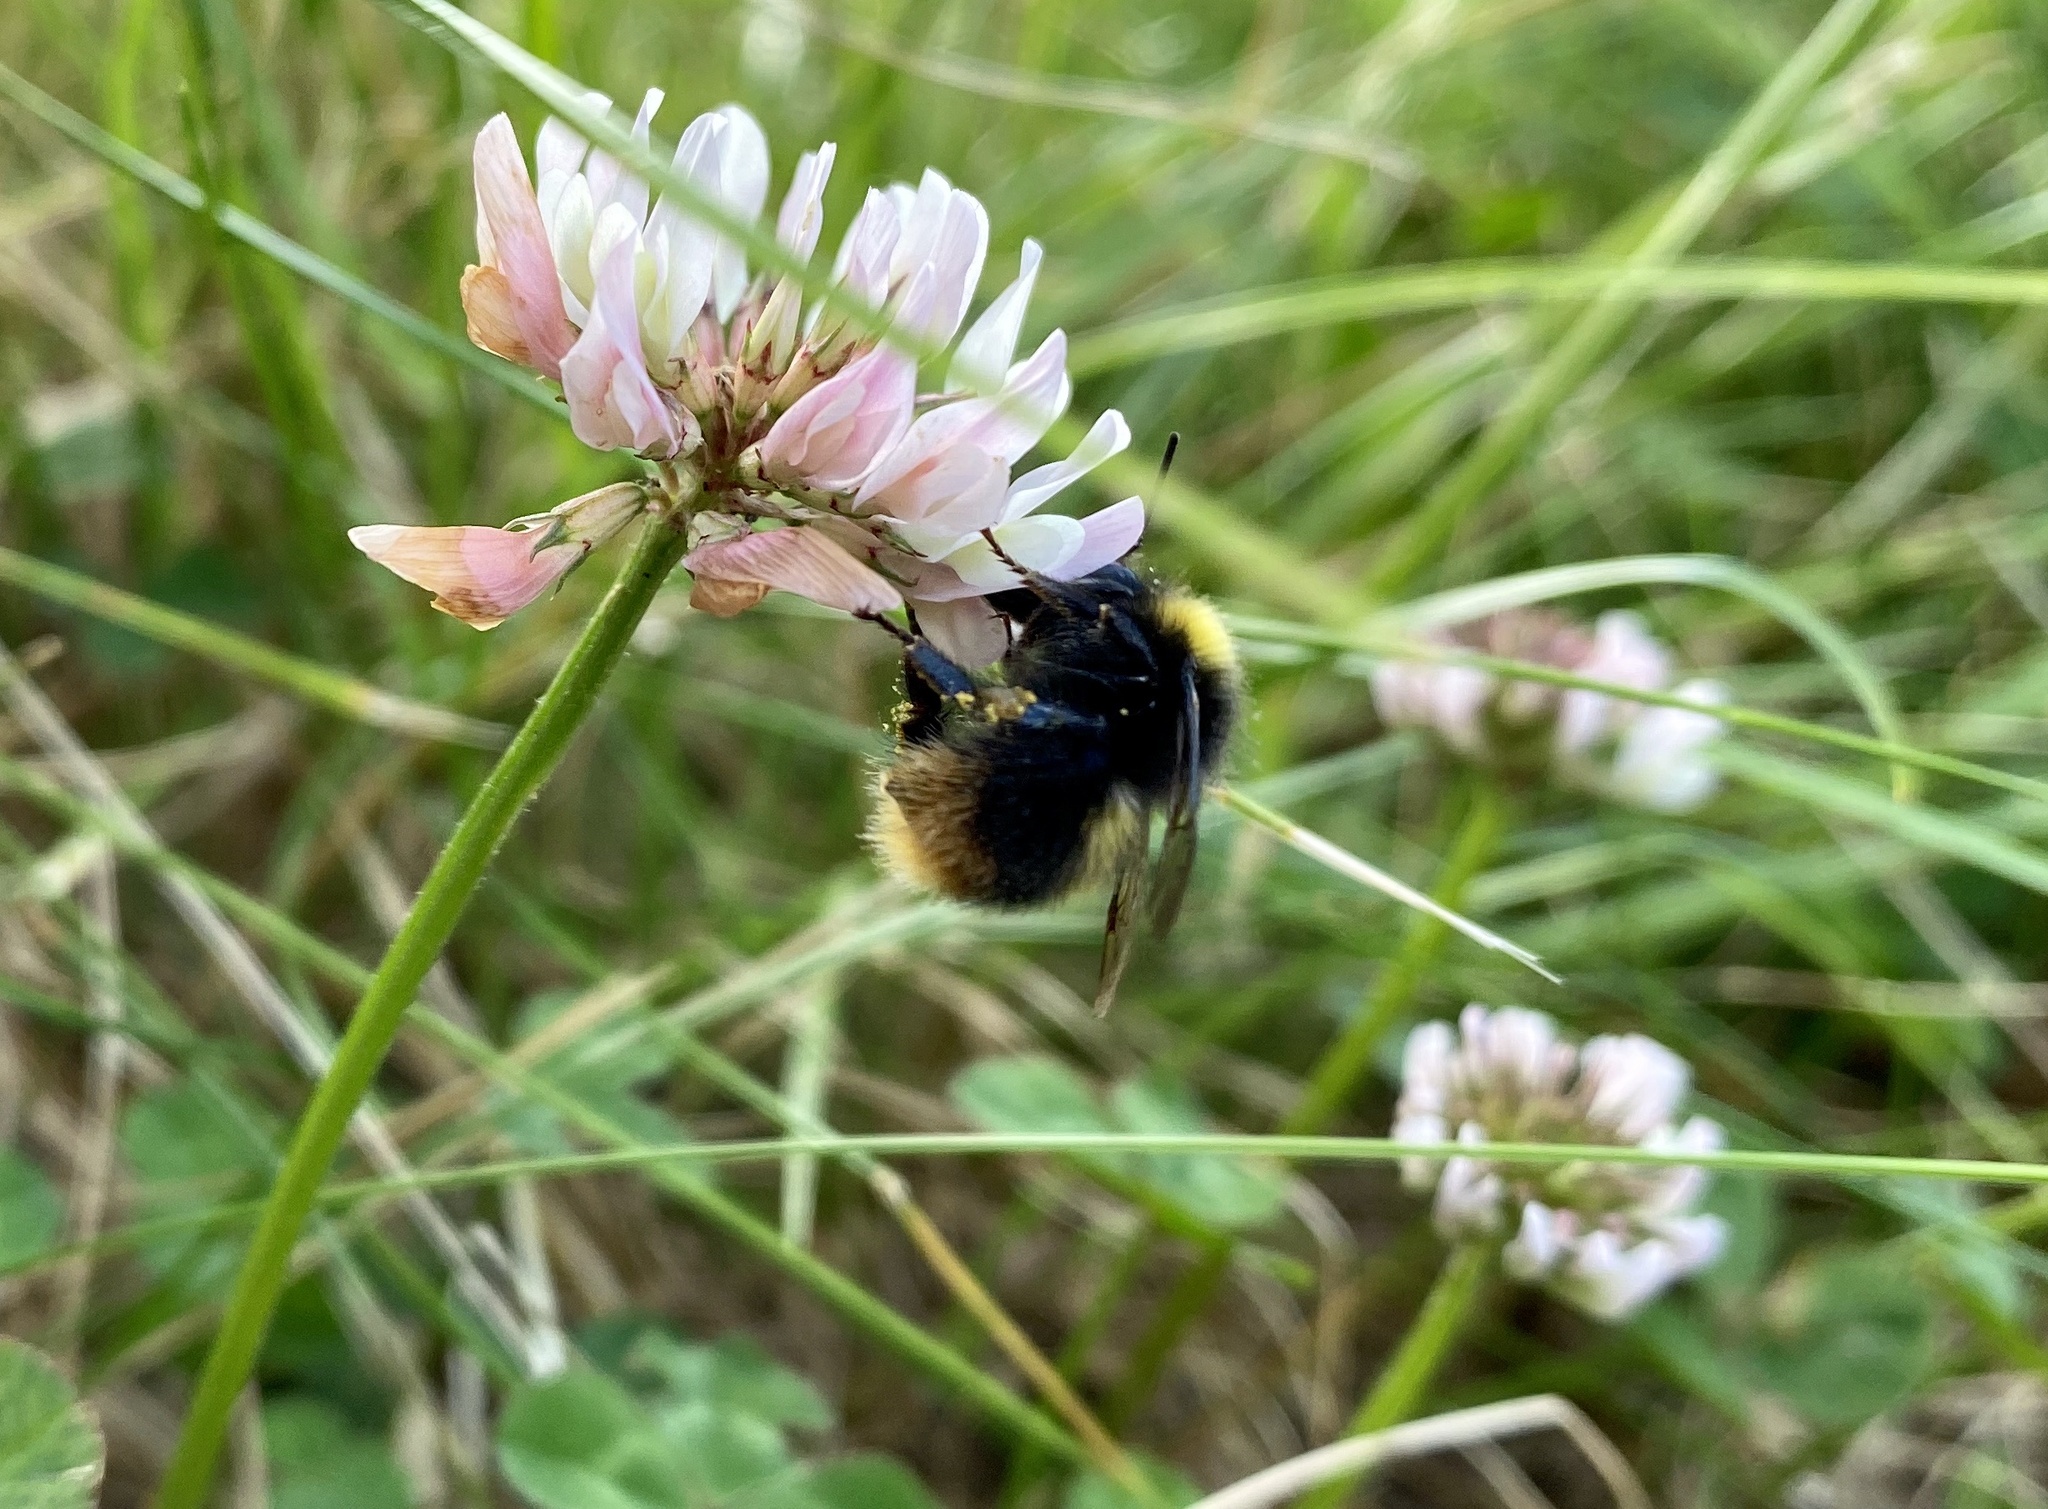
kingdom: Animalia
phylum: Arthropoda
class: Insecta
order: Hymenoptera
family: Apidae
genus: Bombus
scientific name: Bombus pratorum
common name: Early humble-bee
